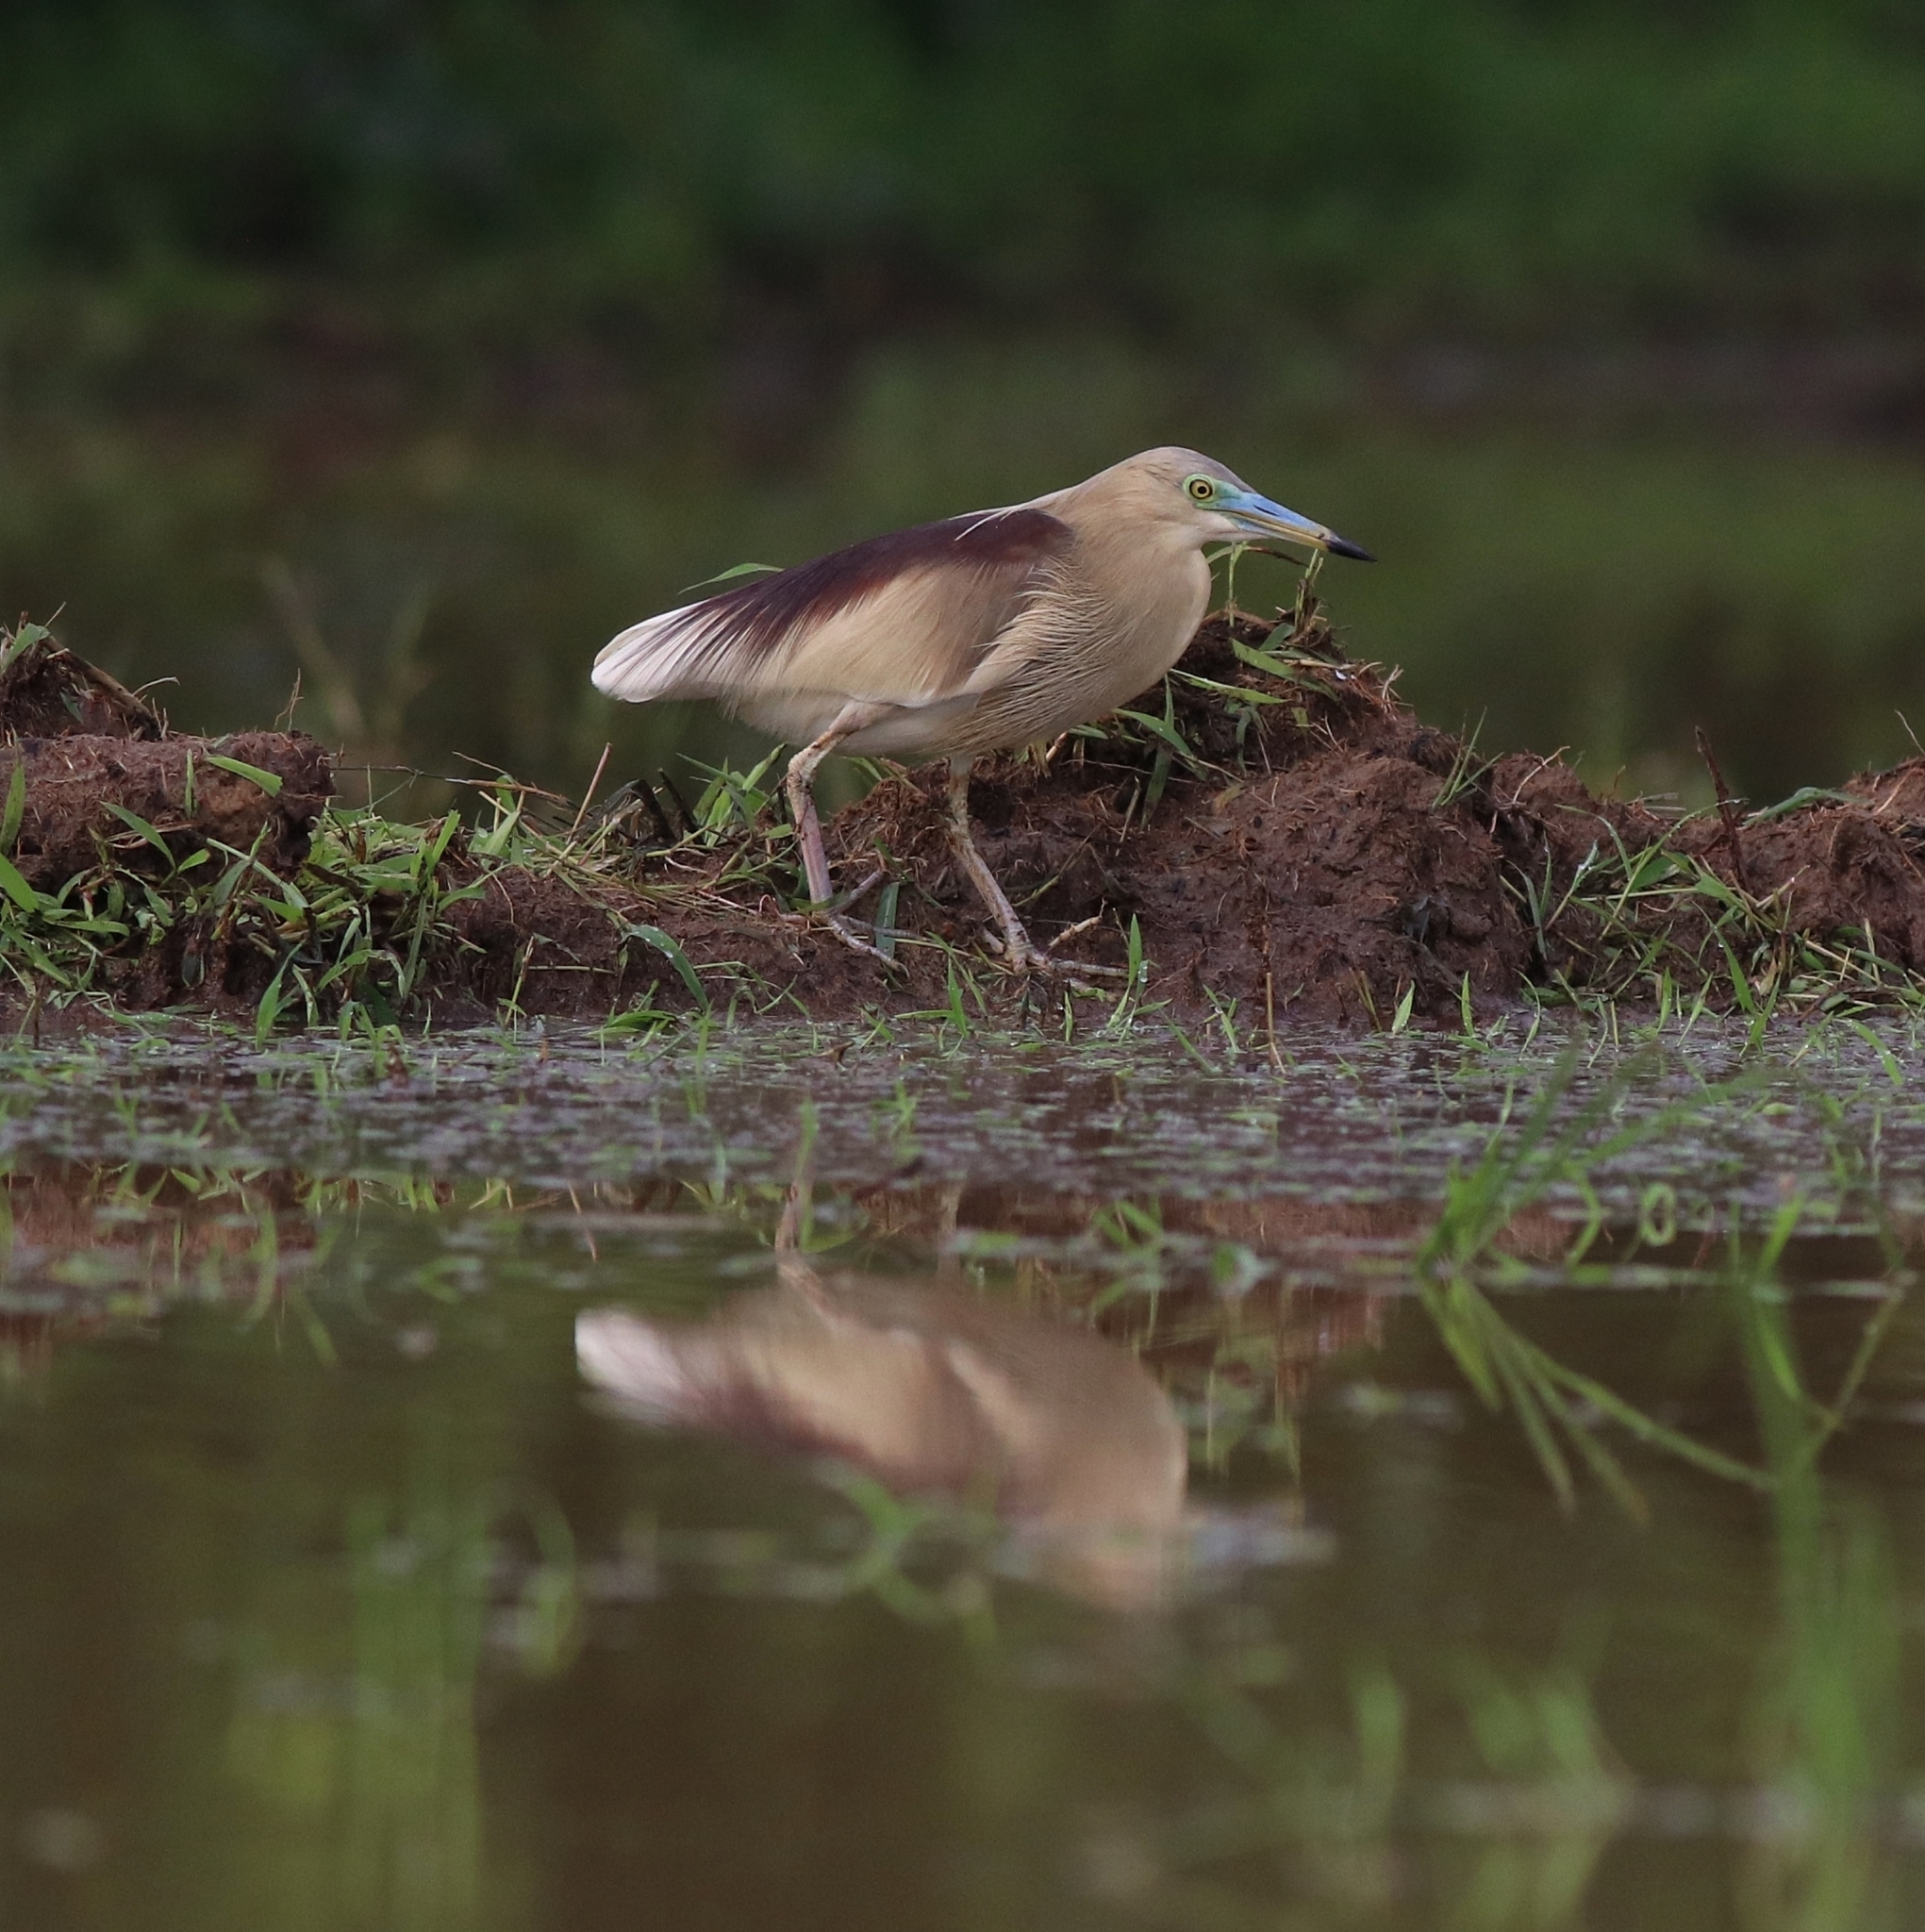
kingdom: Animalia
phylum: Chordata
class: Aves
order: Pelecaniformes
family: Ardeidae
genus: Ardeola
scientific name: Ardeola grayii
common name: Indian pond heron
